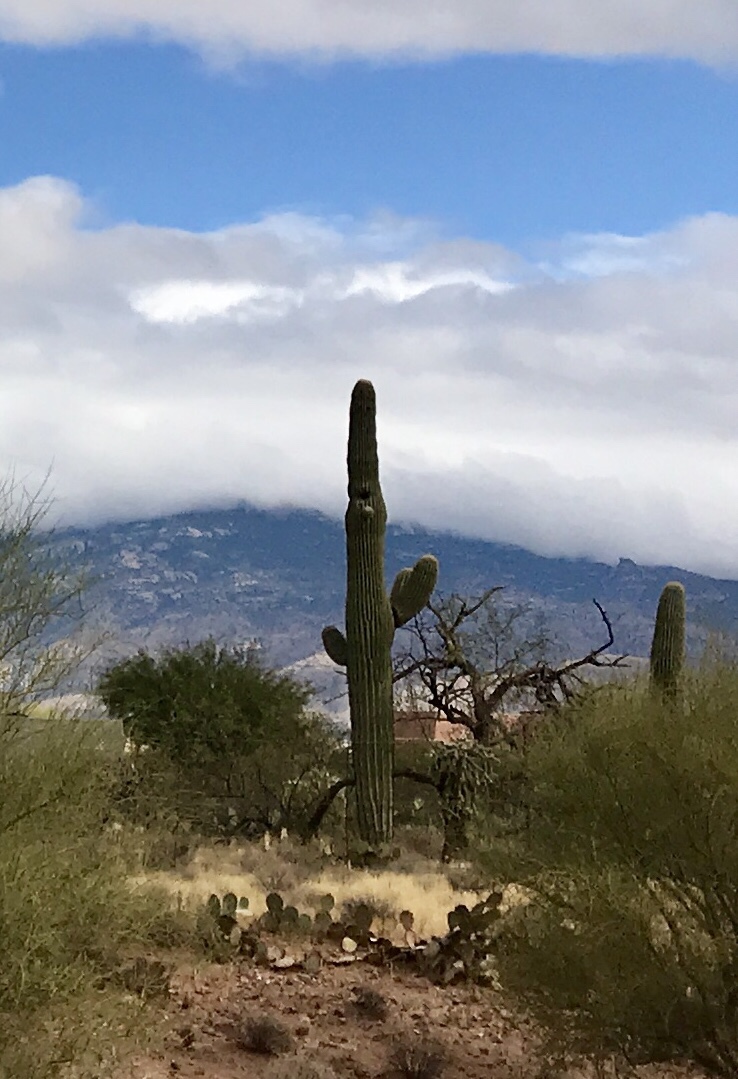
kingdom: Plantae
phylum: Tracheophyta
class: Magnoliopsida
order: Caryophyllales
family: Cactaceae
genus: Carnegiea
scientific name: Carnegiea gigantea
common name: Saguaro
